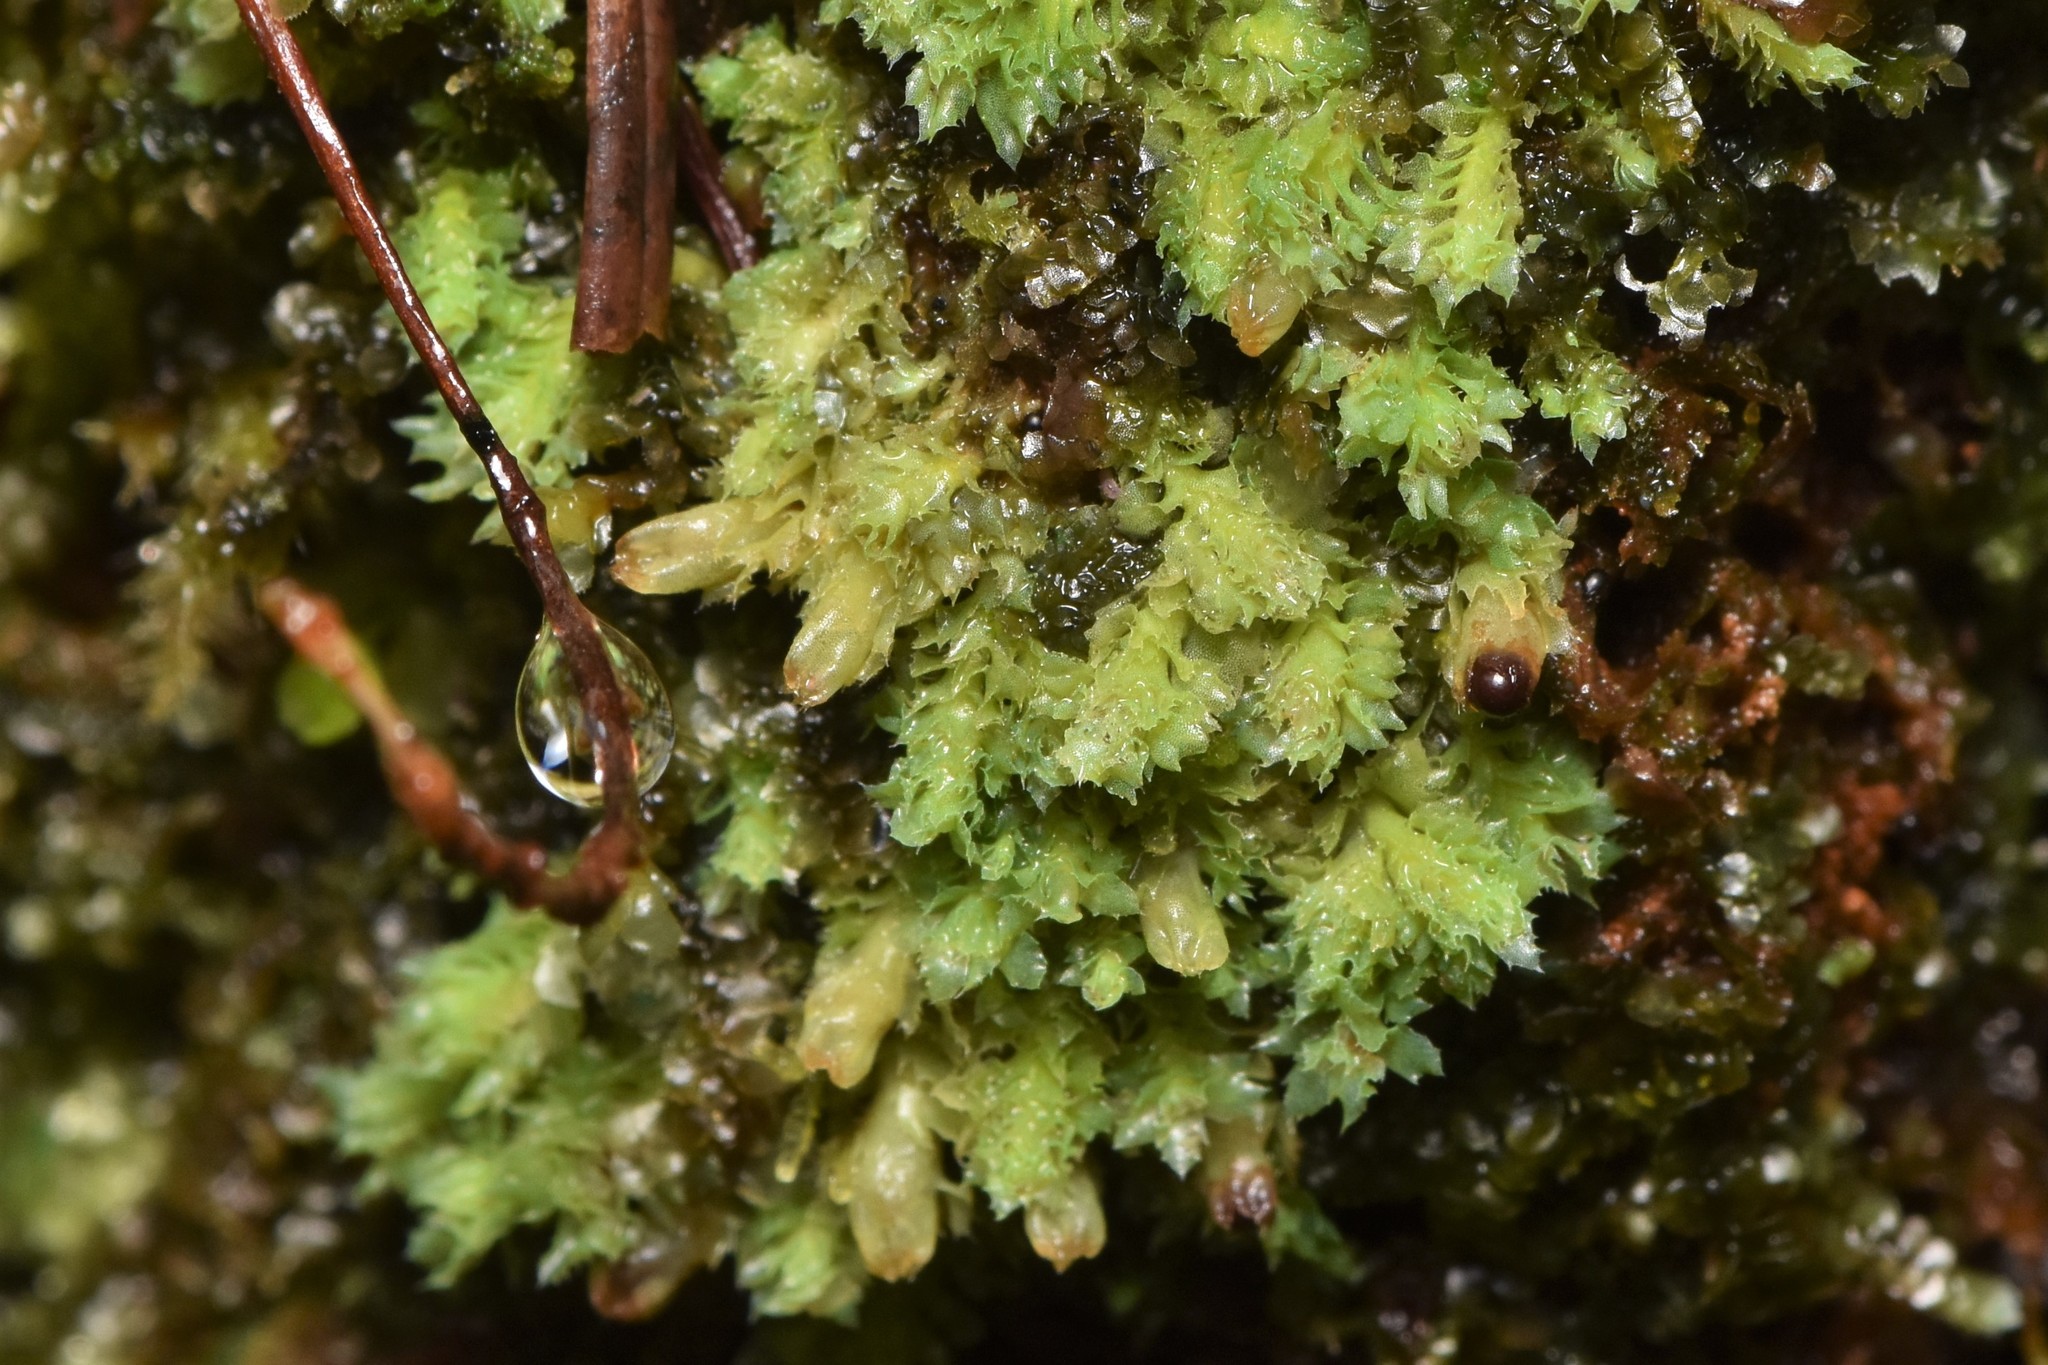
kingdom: Plantae
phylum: Marchantiophyta
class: Jungermanniopsida
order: Jungermanniales
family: Scapaniaceae
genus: Schistochilopsis
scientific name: Schistochilopsis incisa
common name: Jagged notchwort
